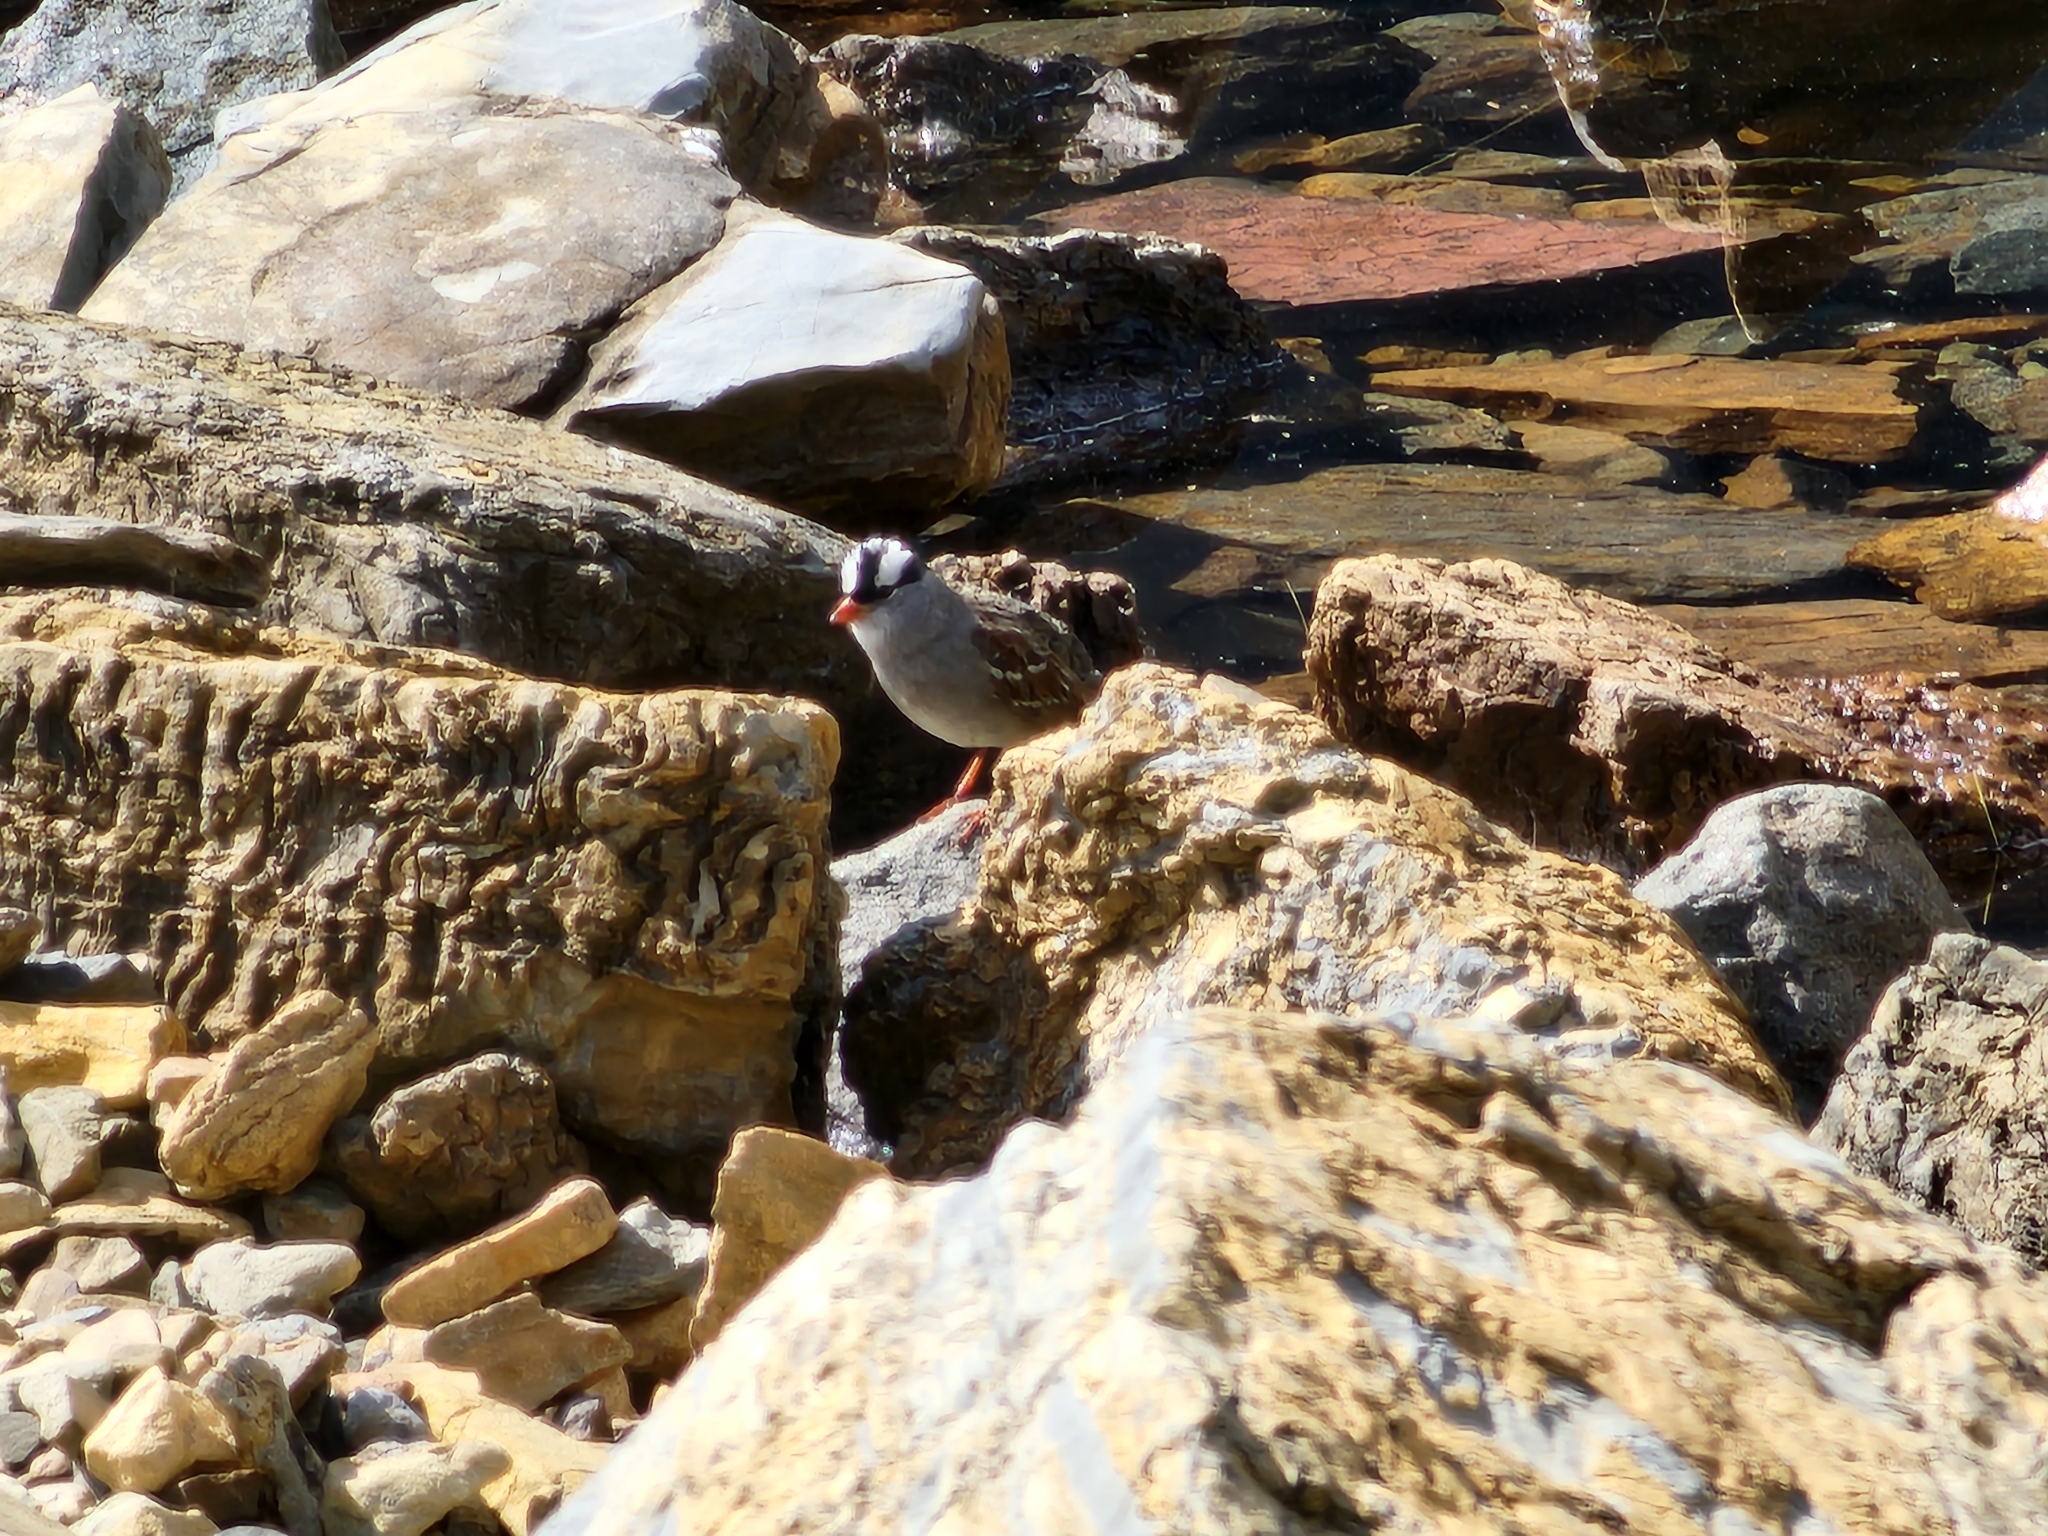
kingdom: Animalia
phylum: Chordata
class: Aves
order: Passeriformes
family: Passerellidae
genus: Zonotrichia
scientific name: Zonotrichia leucophrys
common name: White-crowned sparrow
